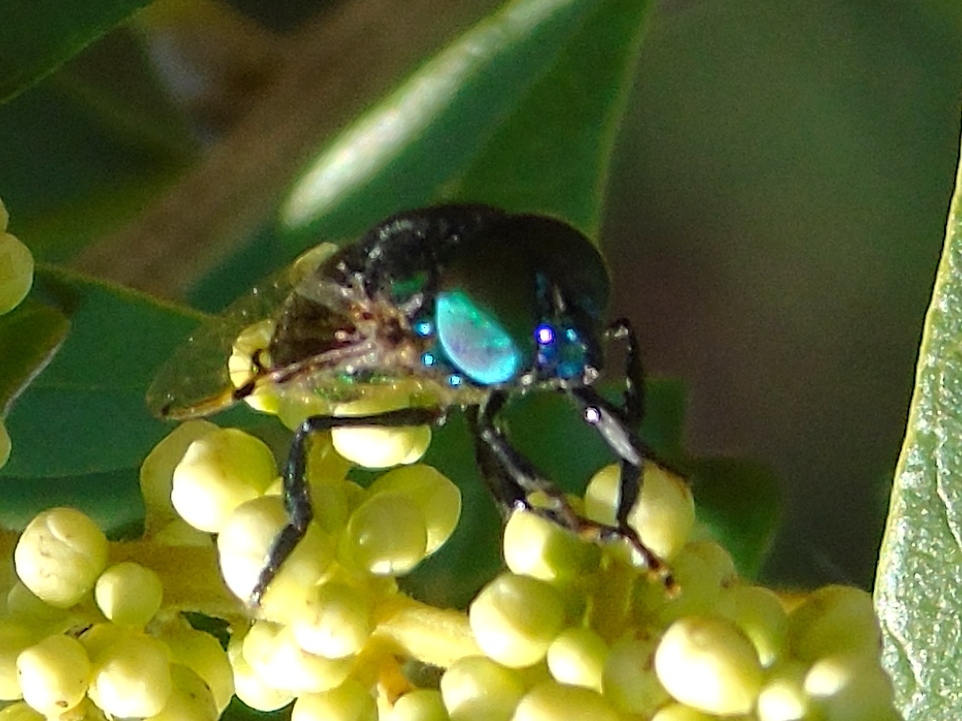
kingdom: Animalia
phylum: Arthropoda
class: Insecta
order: Diptera
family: Syrphidae
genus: Ornidia
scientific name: Ornidia
